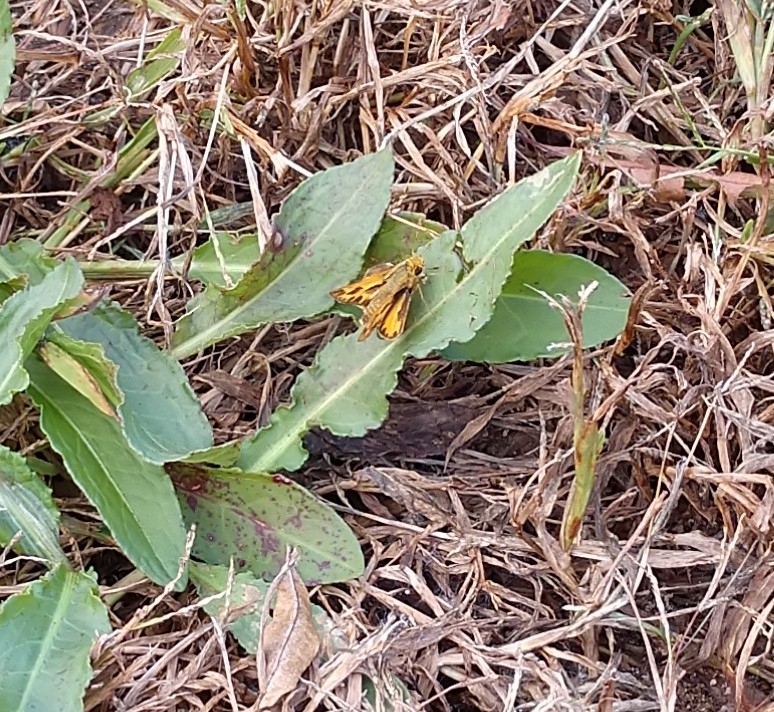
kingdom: Animalia
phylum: Arthropoda
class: Insecta
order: Lepidoptera
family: Hesperiidae
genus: Hylephila
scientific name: Hylephila phyleus
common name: Fiery skipper
